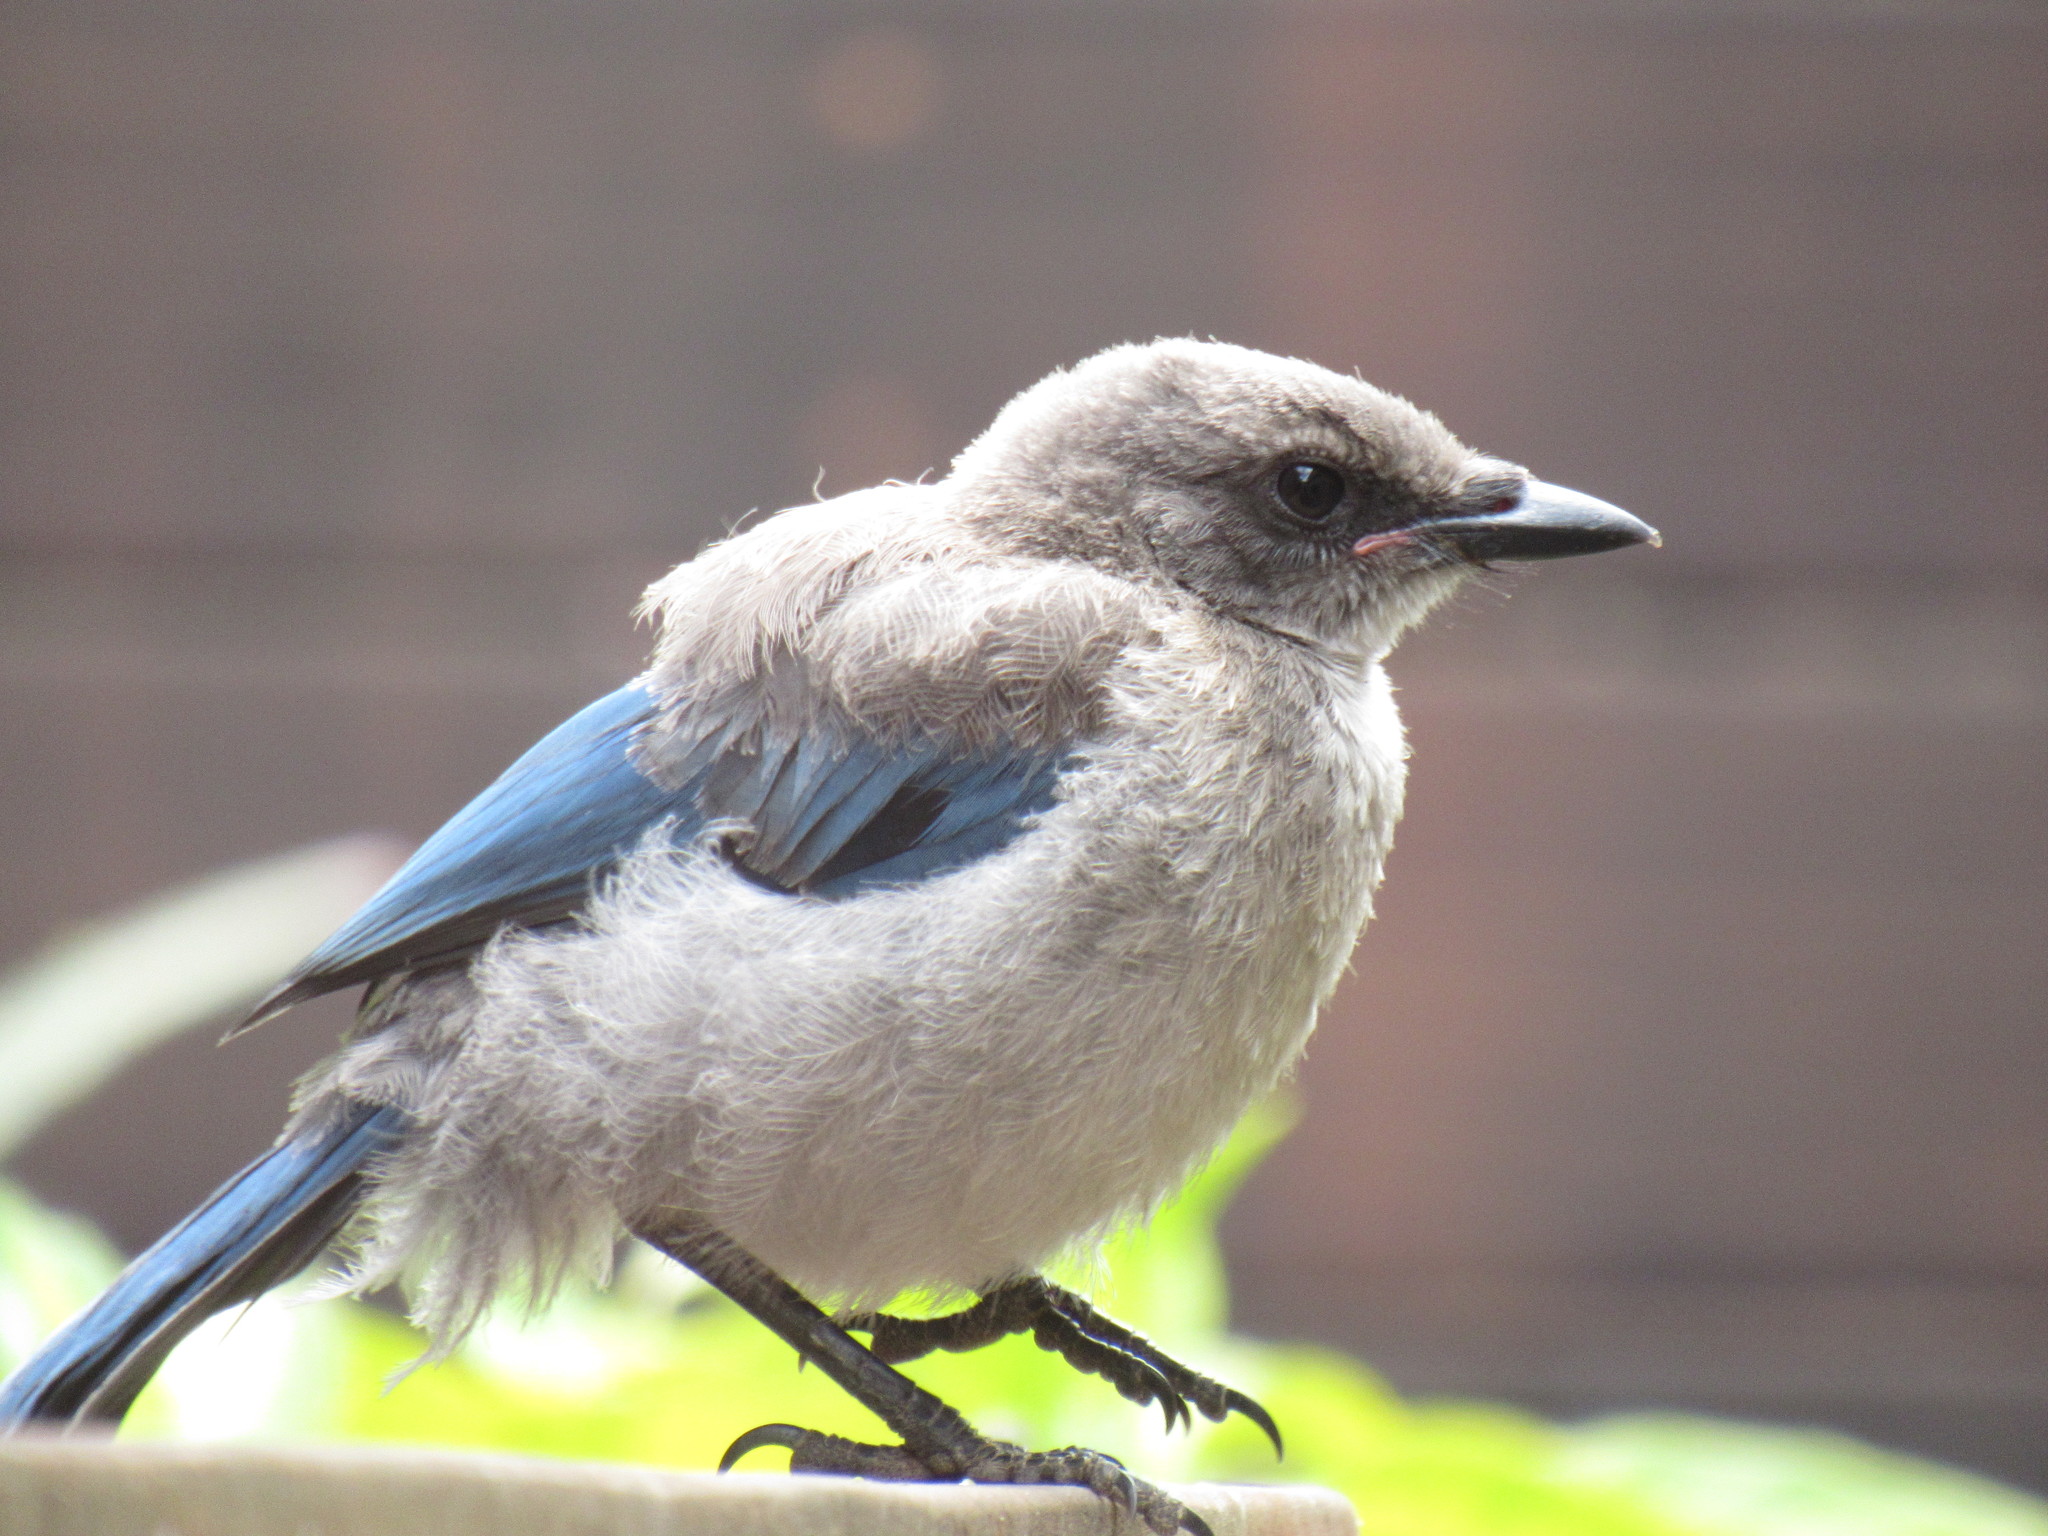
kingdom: Animalia
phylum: Chordata
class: Aves
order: Passeriformes
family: Corvidae
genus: Aphelocoma
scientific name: Aphelocoma californica
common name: California scrub-jay
